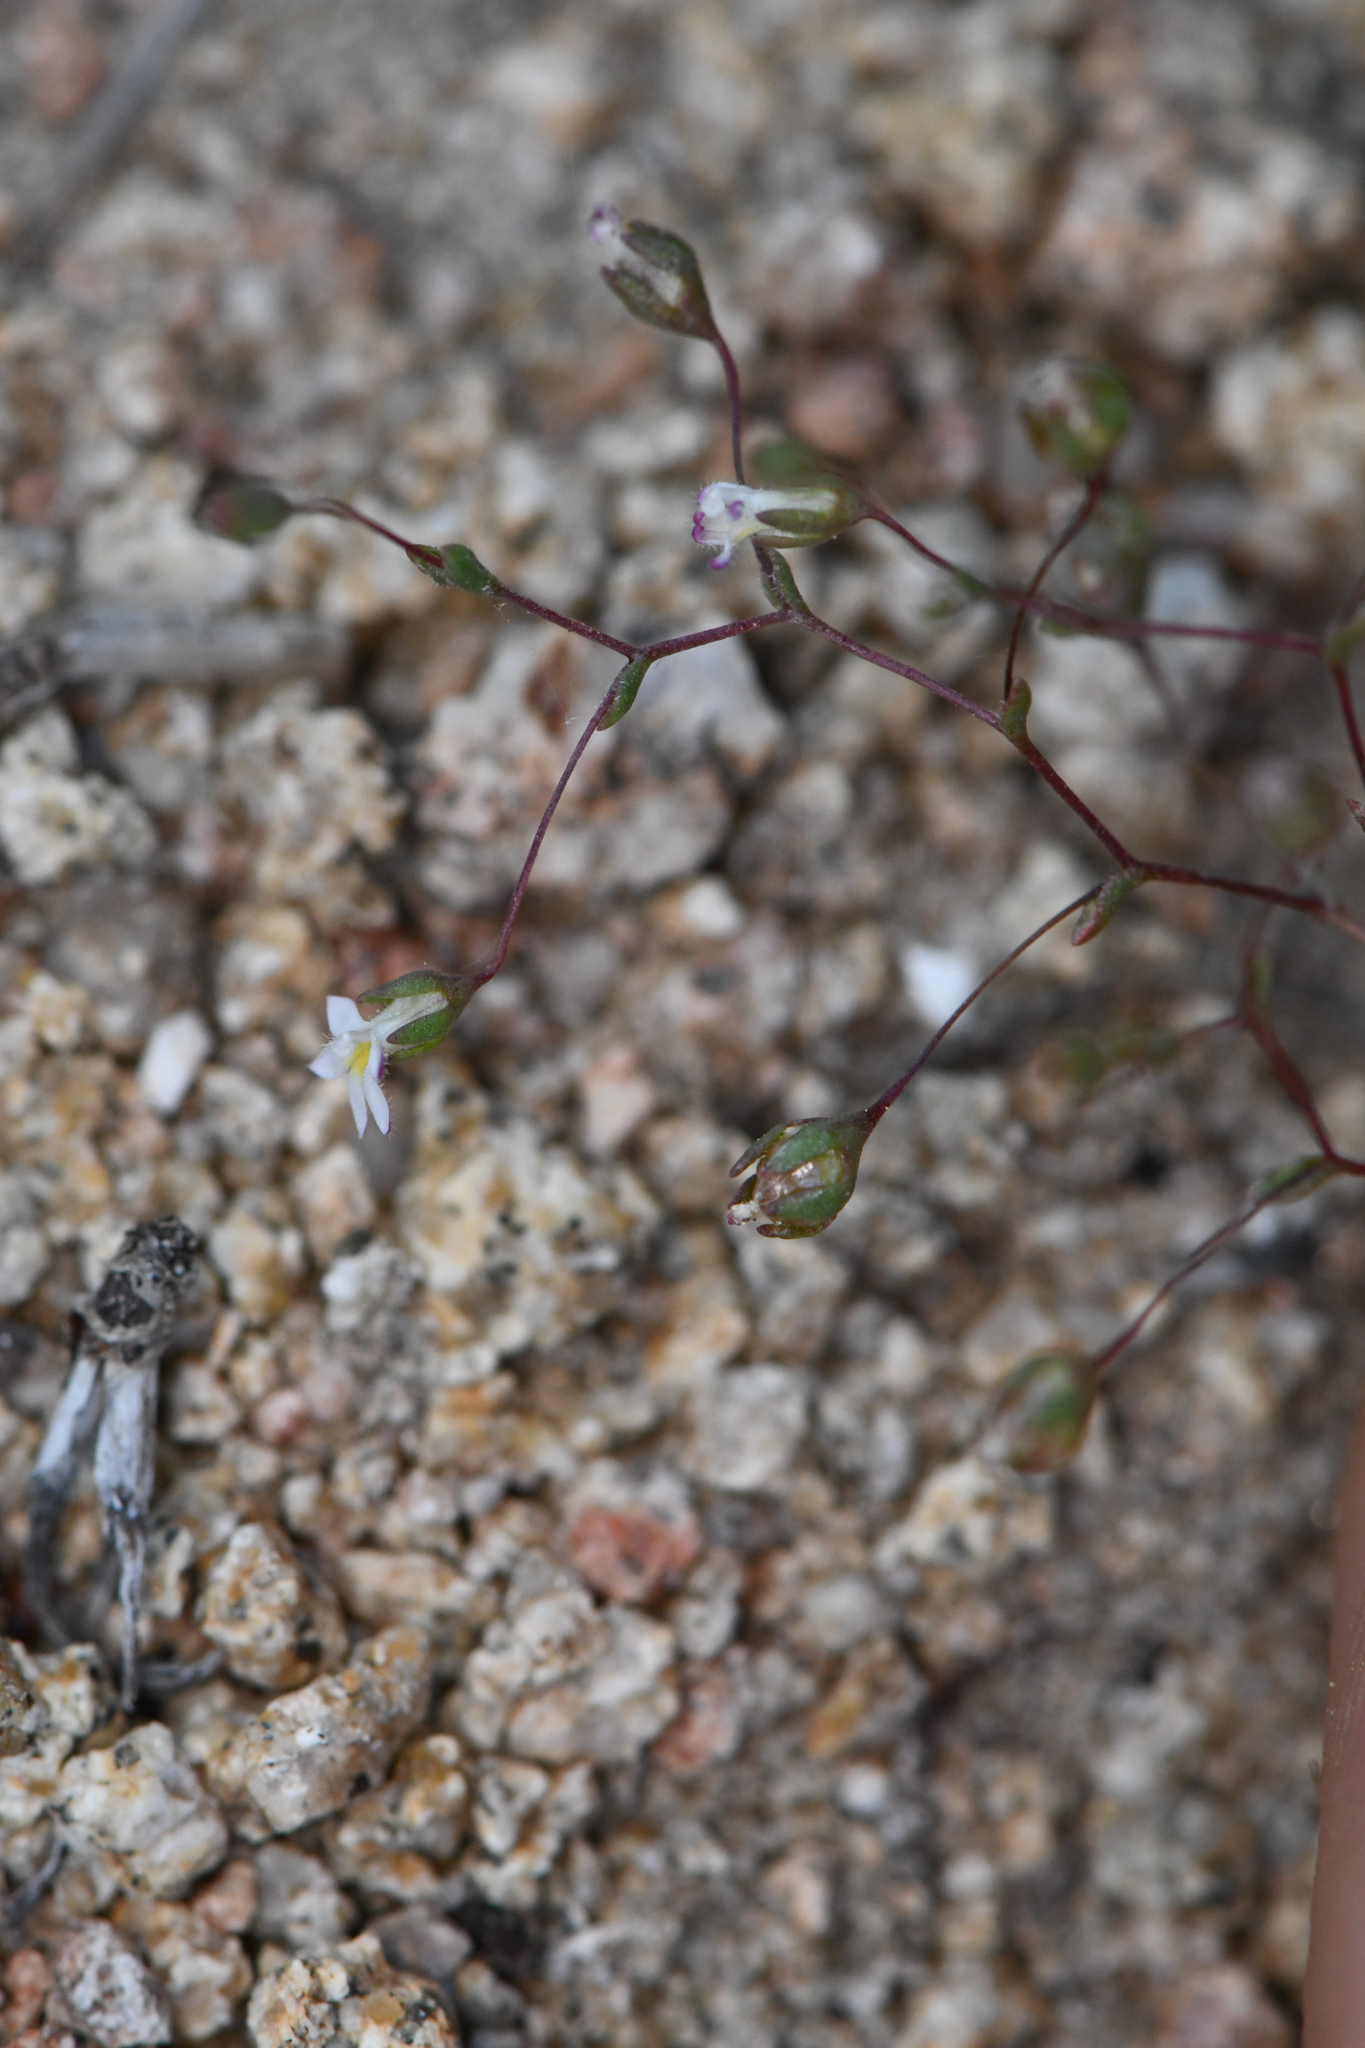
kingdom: Plantae
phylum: Tracheophyta
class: Magnoliopsida
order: Asterales
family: Campanulaceae
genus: Nemacladus
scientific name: Nemacladus sigmoideus
